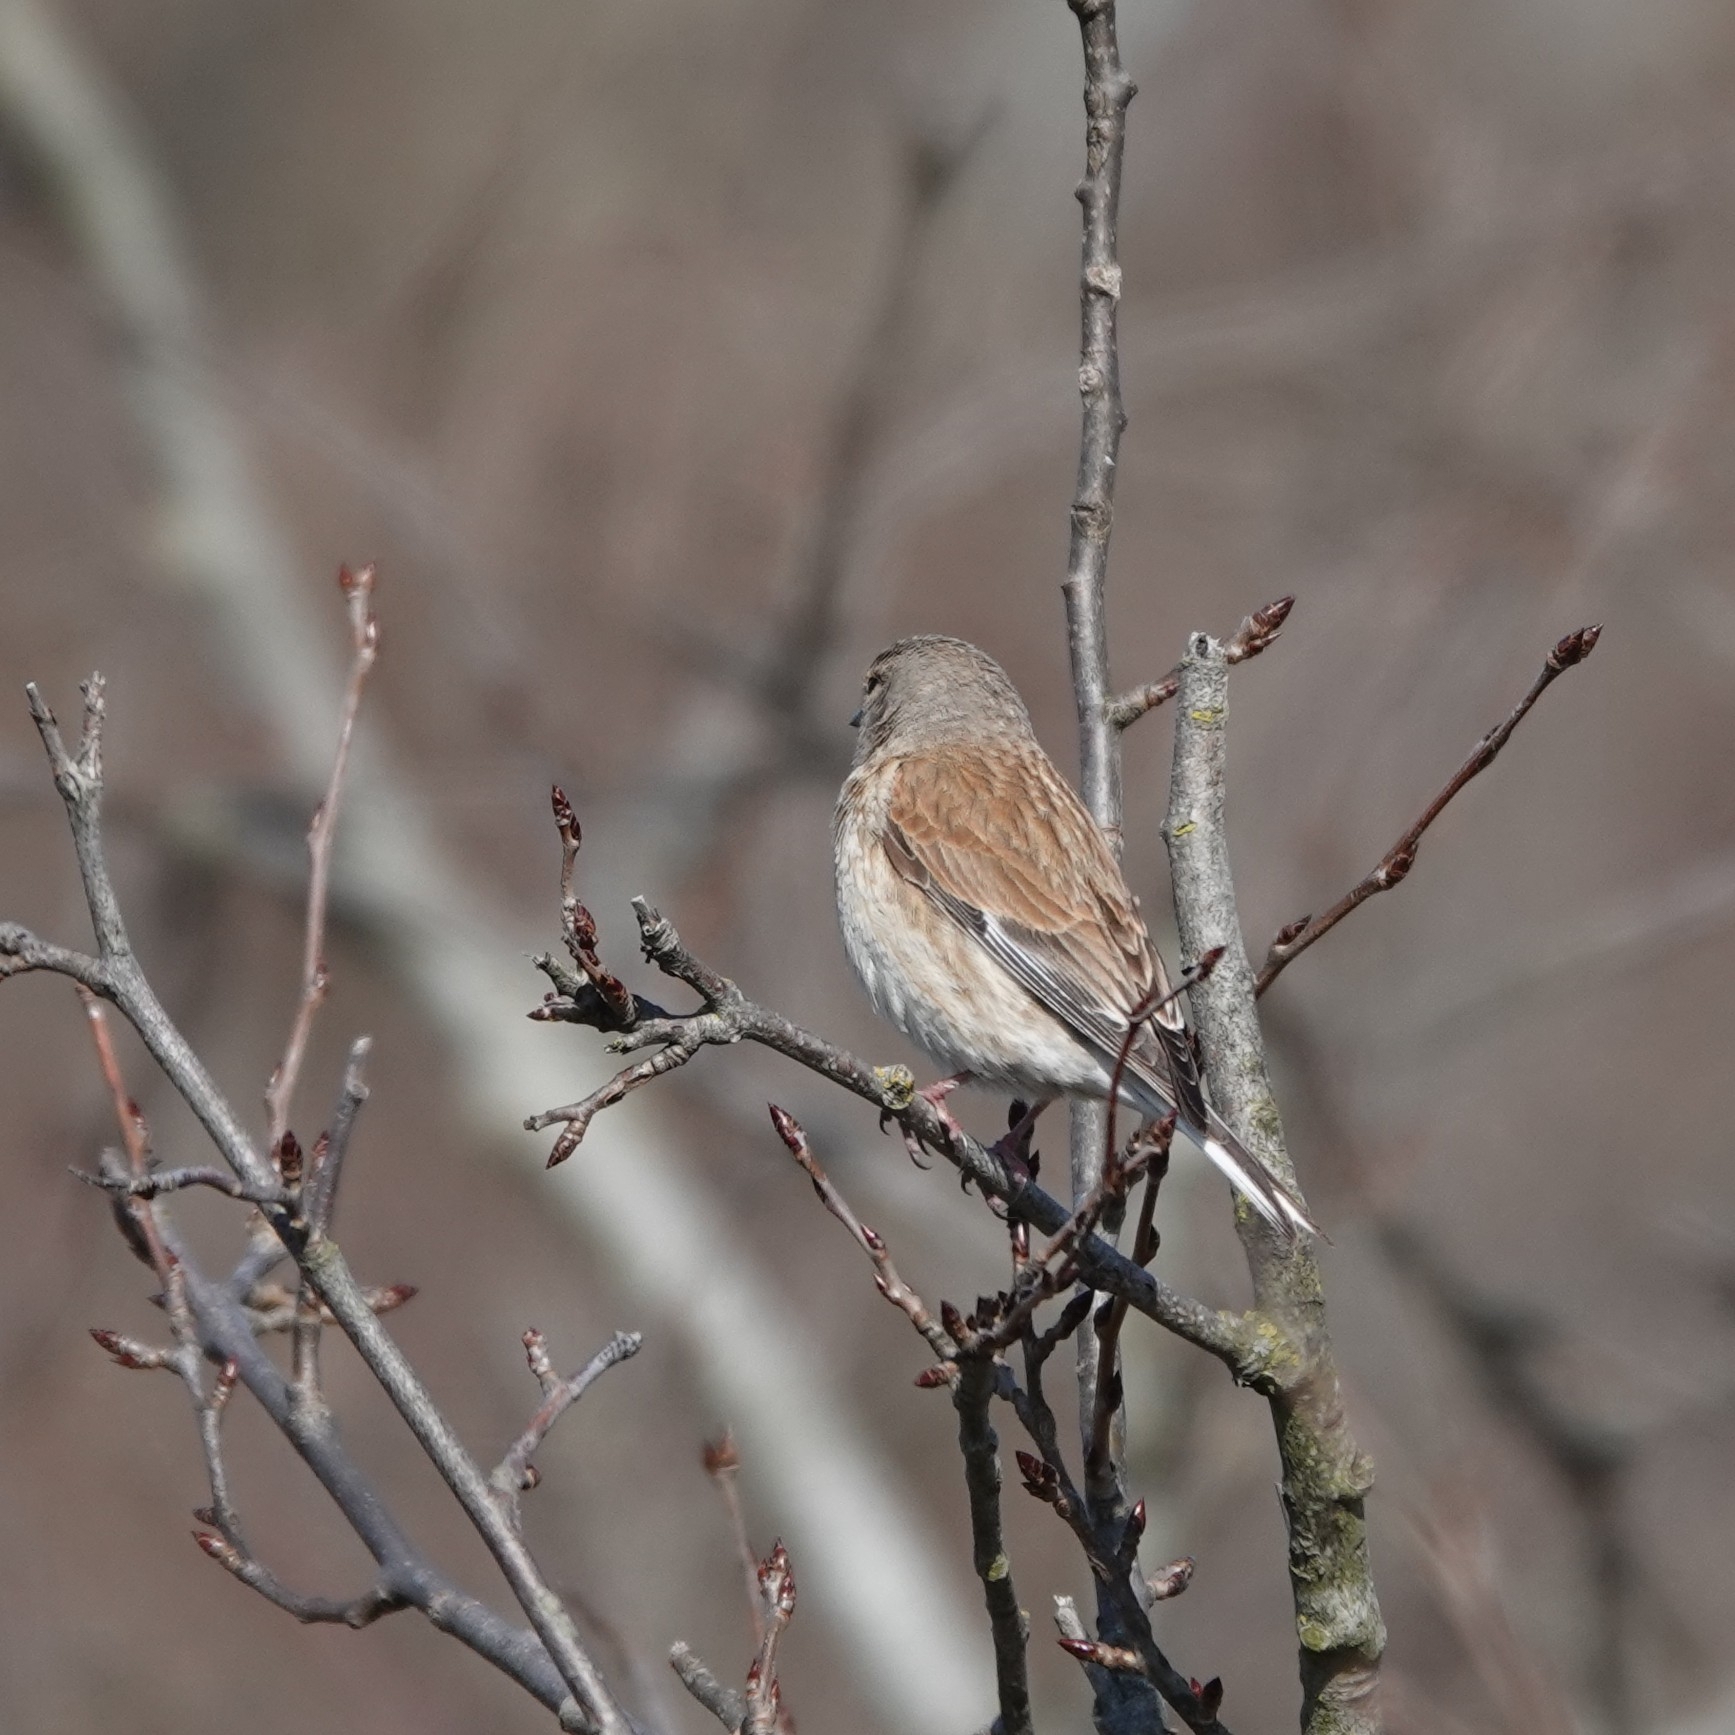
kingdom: Animalia
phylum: Chordata
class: Aves
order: Passeriformes
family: Fringillidae
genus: Linaria
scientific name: Linaria cannabina
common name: Common linnet
